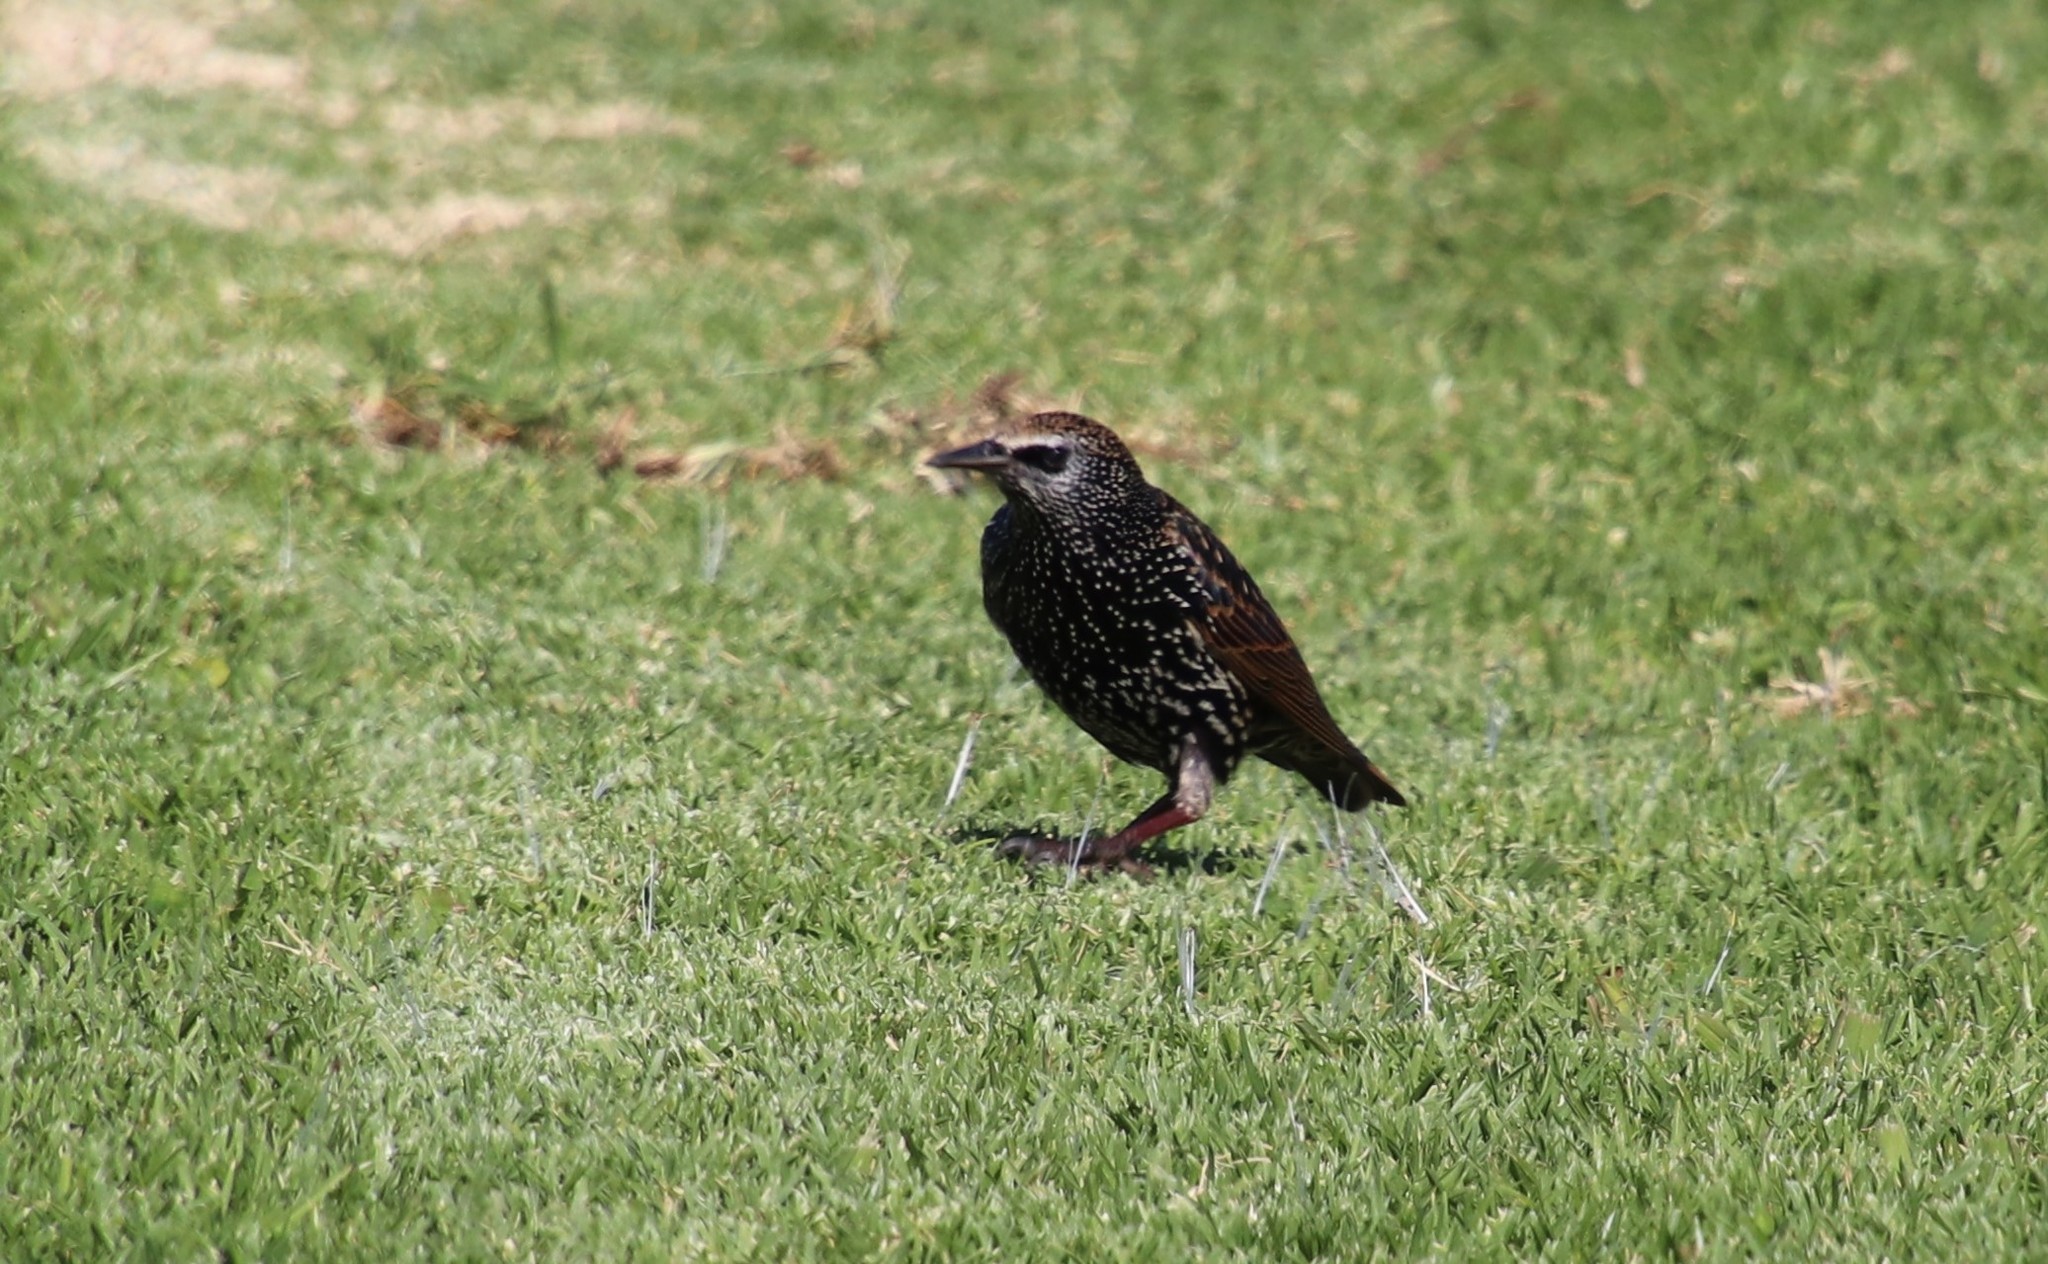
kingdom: Animalia
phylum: Chordata
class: Aves
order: Passeriformes
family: Sturnidae
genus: Sturnus
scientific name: Sturnus vulgaris
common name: Common starling
